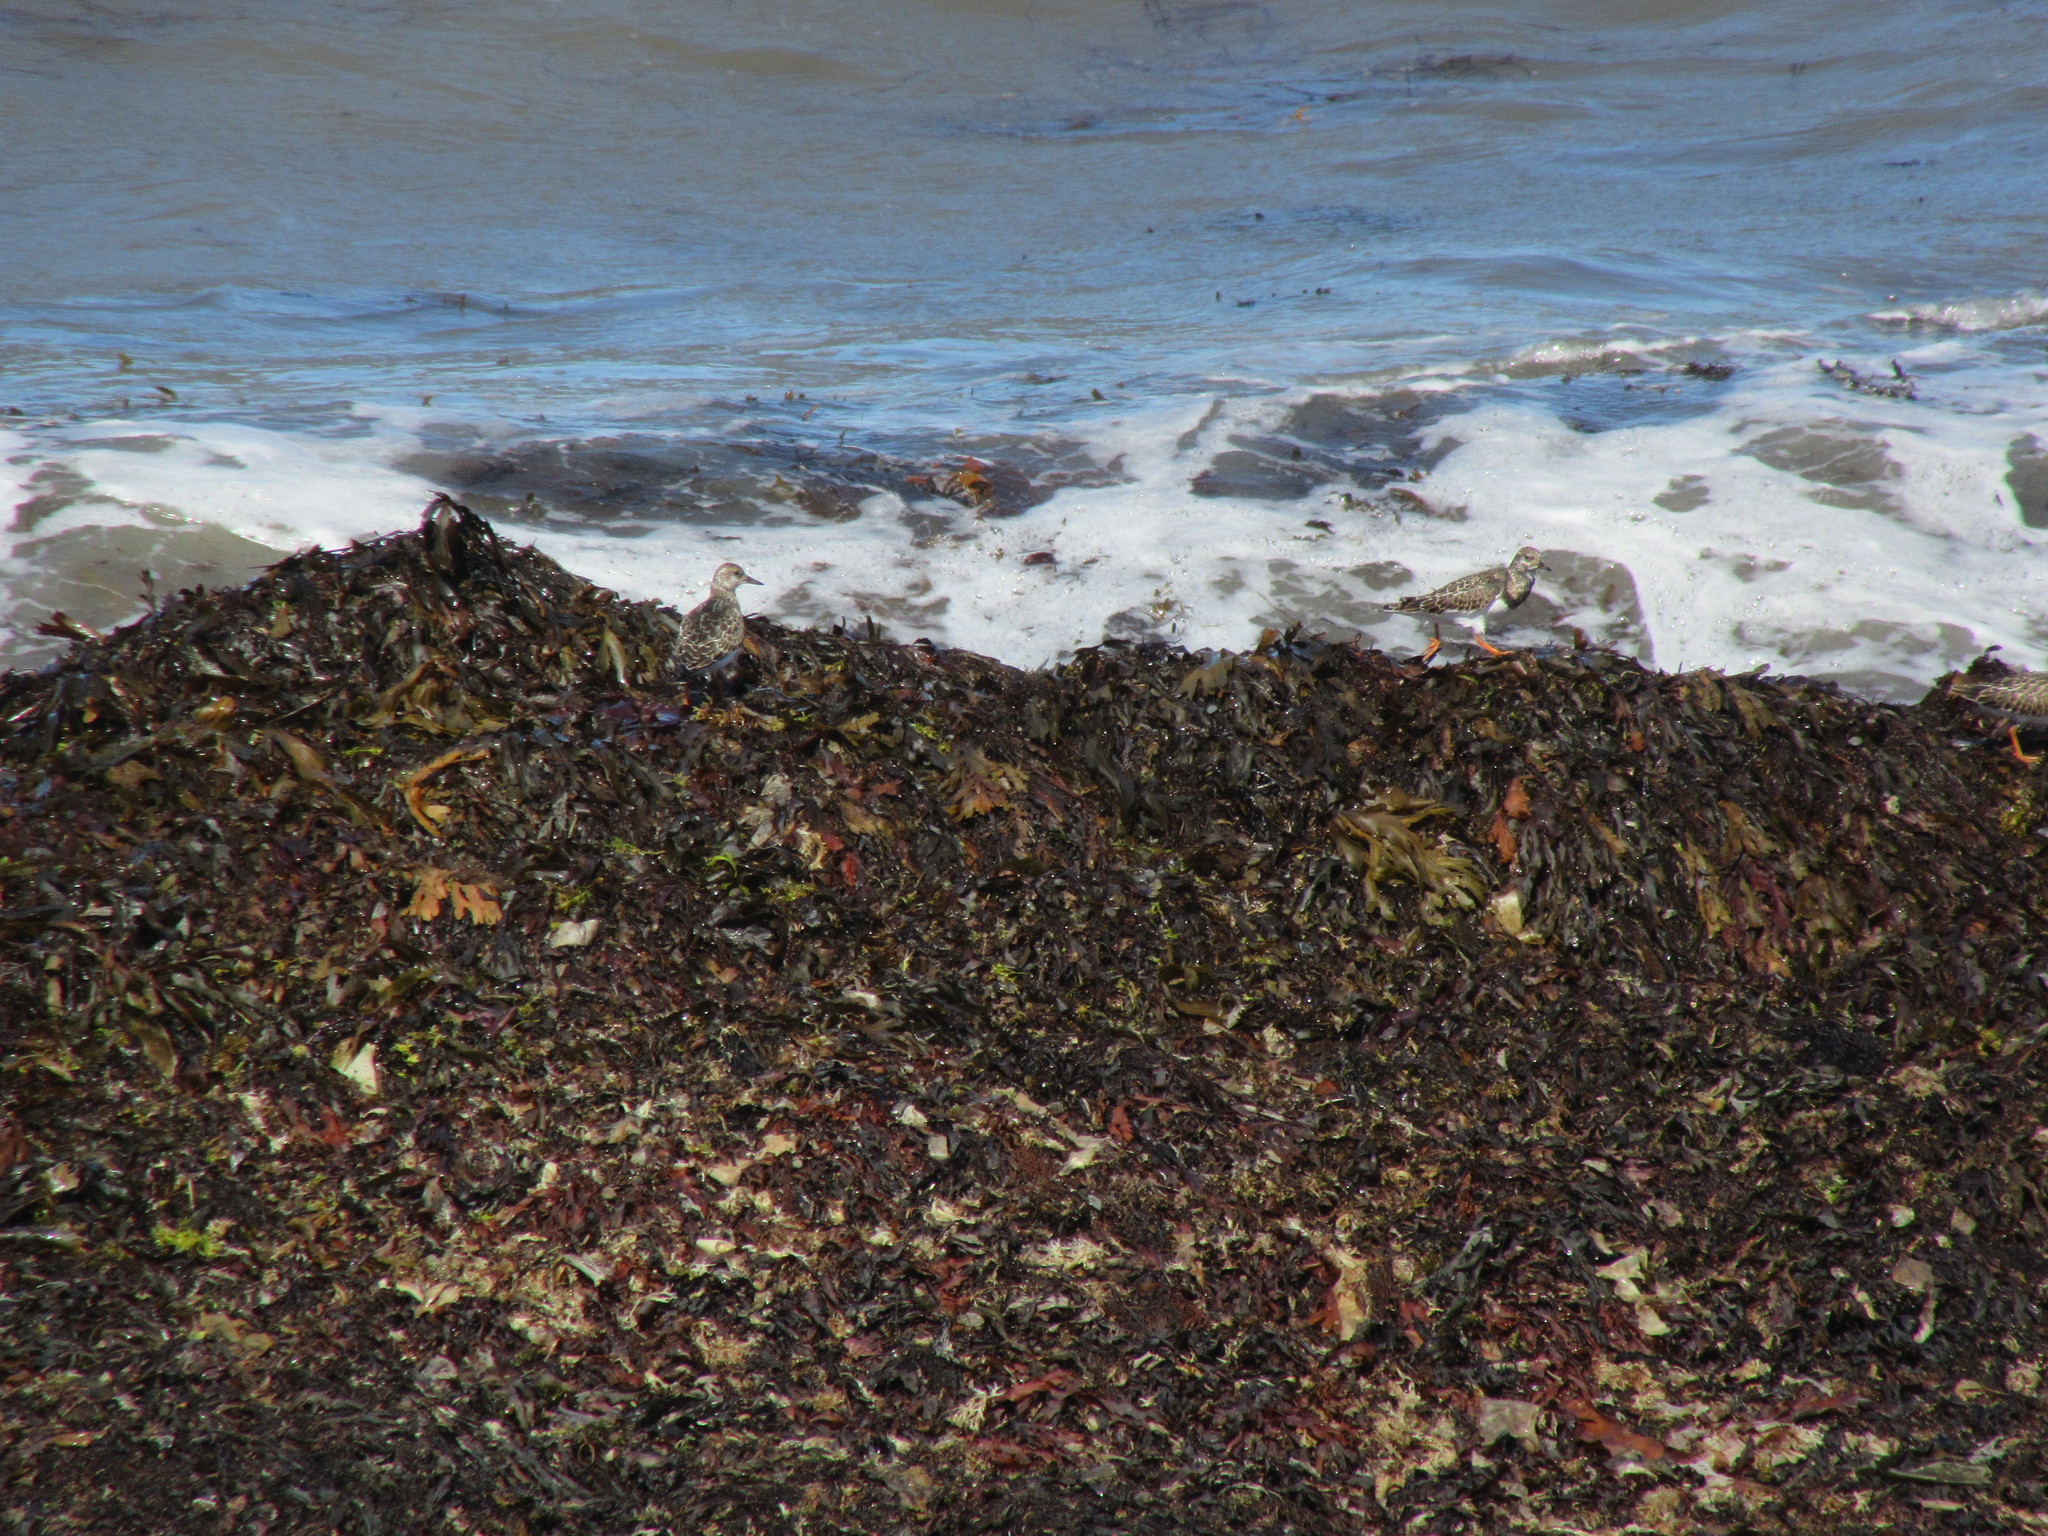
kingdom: Animalia
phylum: Chordata
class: Aves
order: Charadriiformes
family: Scolopacidae
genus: Arenaria
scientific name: Arenaria interpres
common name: Ruddy turnstone
